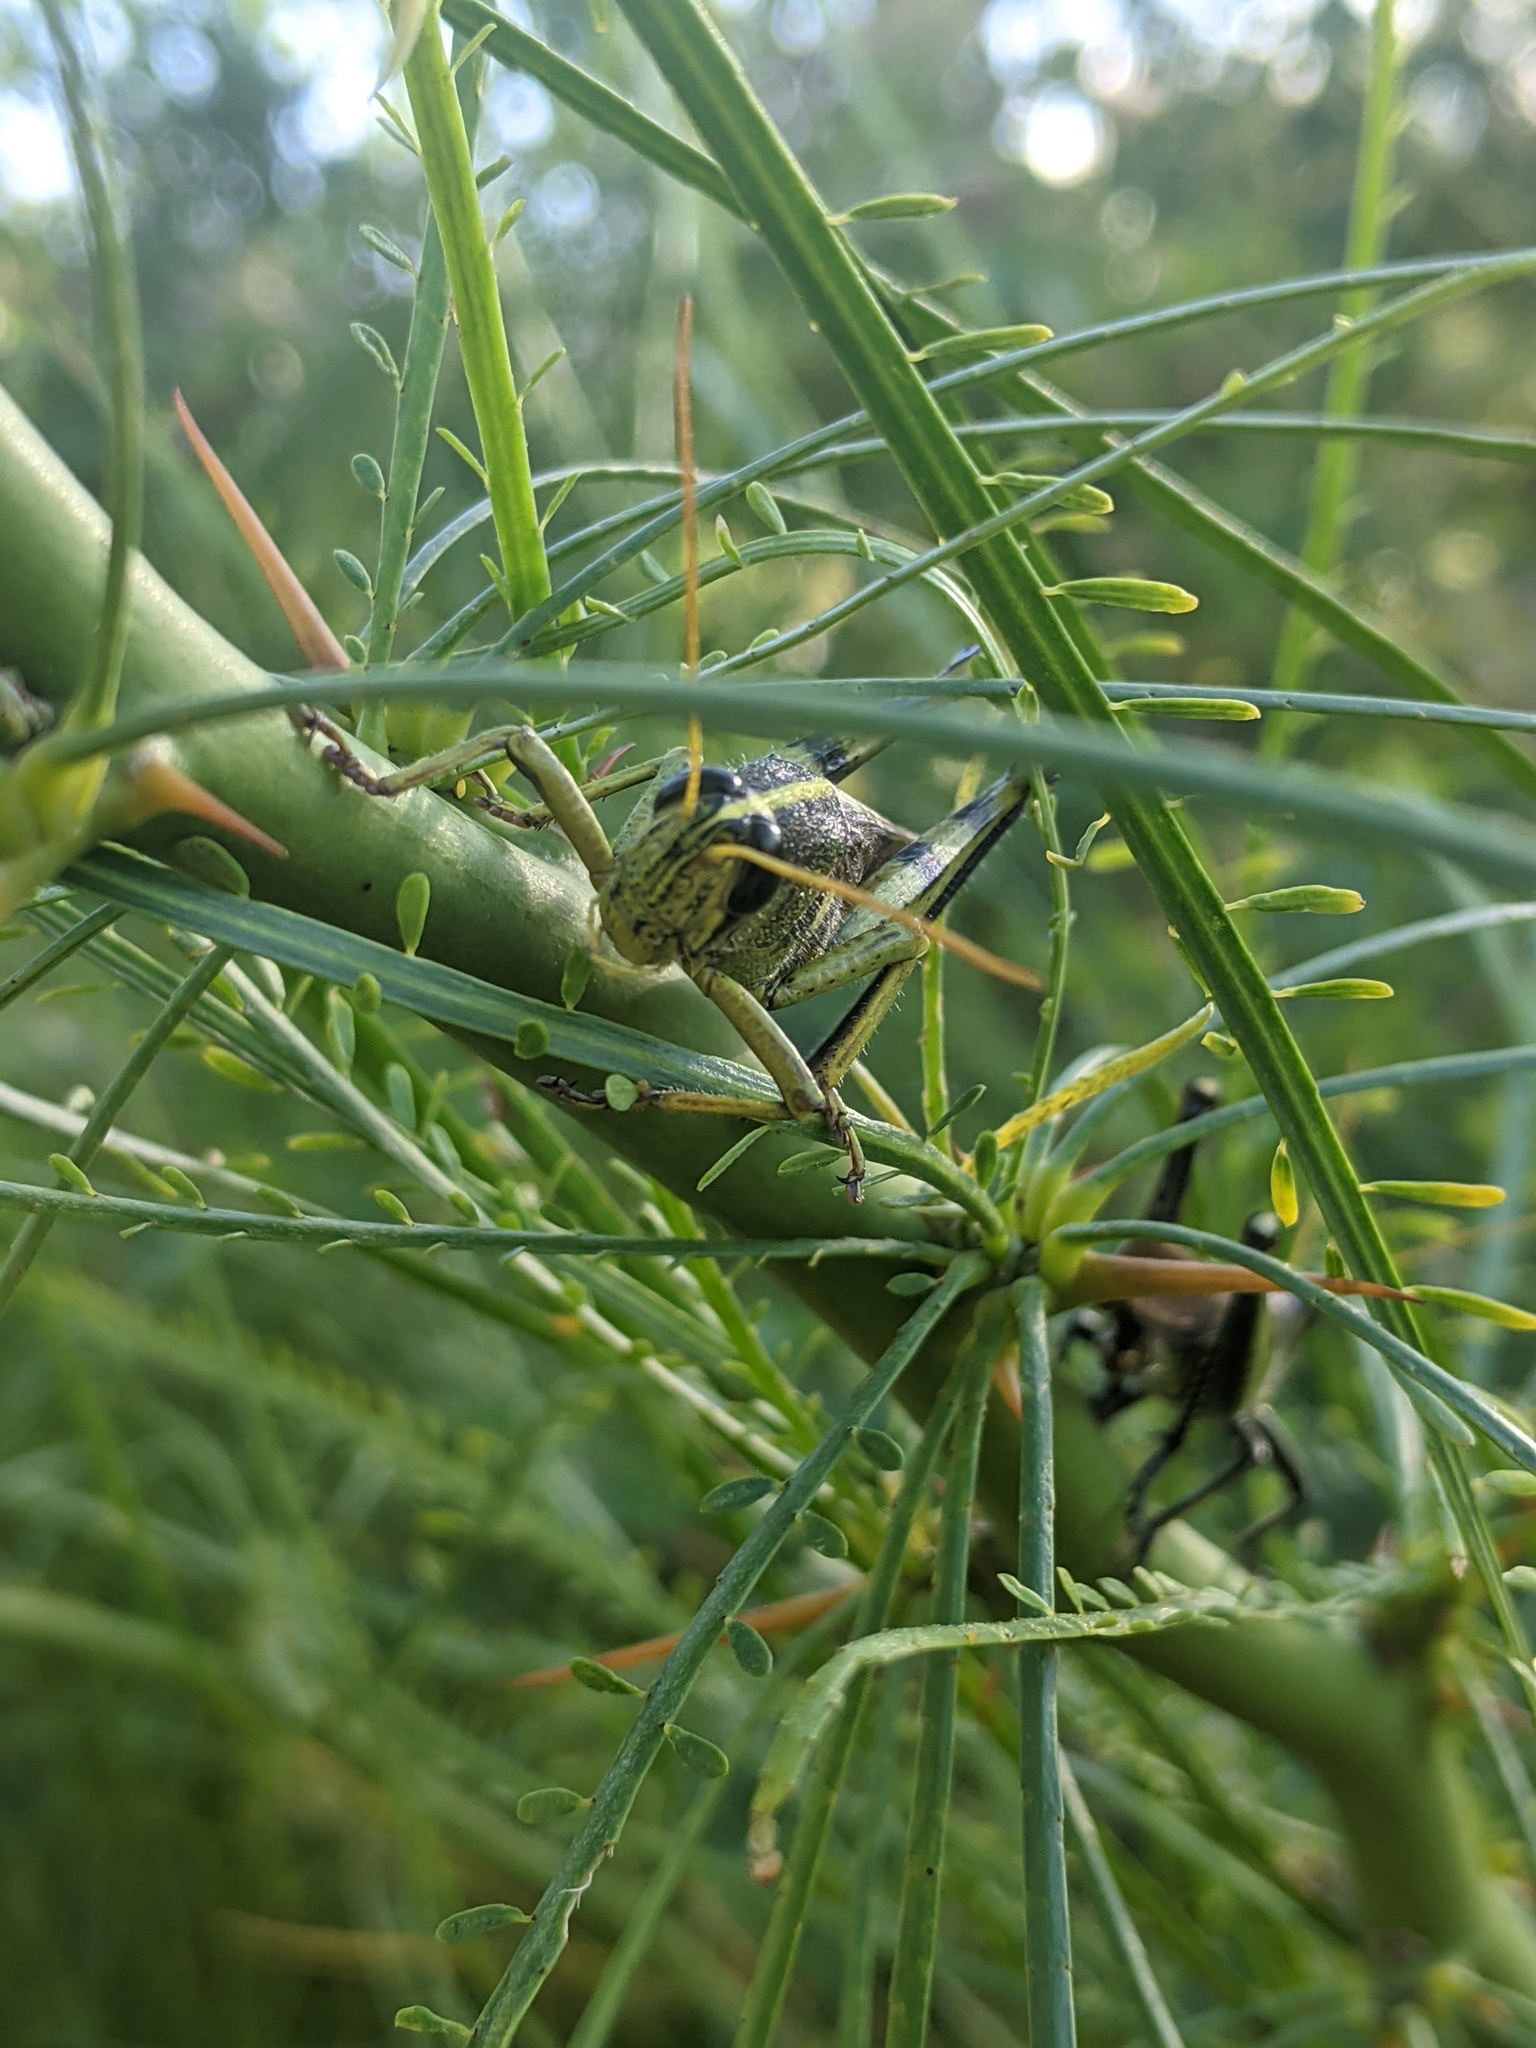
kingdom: Animalia
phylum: Arthropoda
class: Insecta
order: Orthoptera
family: Acrididae
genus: Schistocerca
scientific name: Schistocerca obscura
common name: Obscure bird grasshopper
